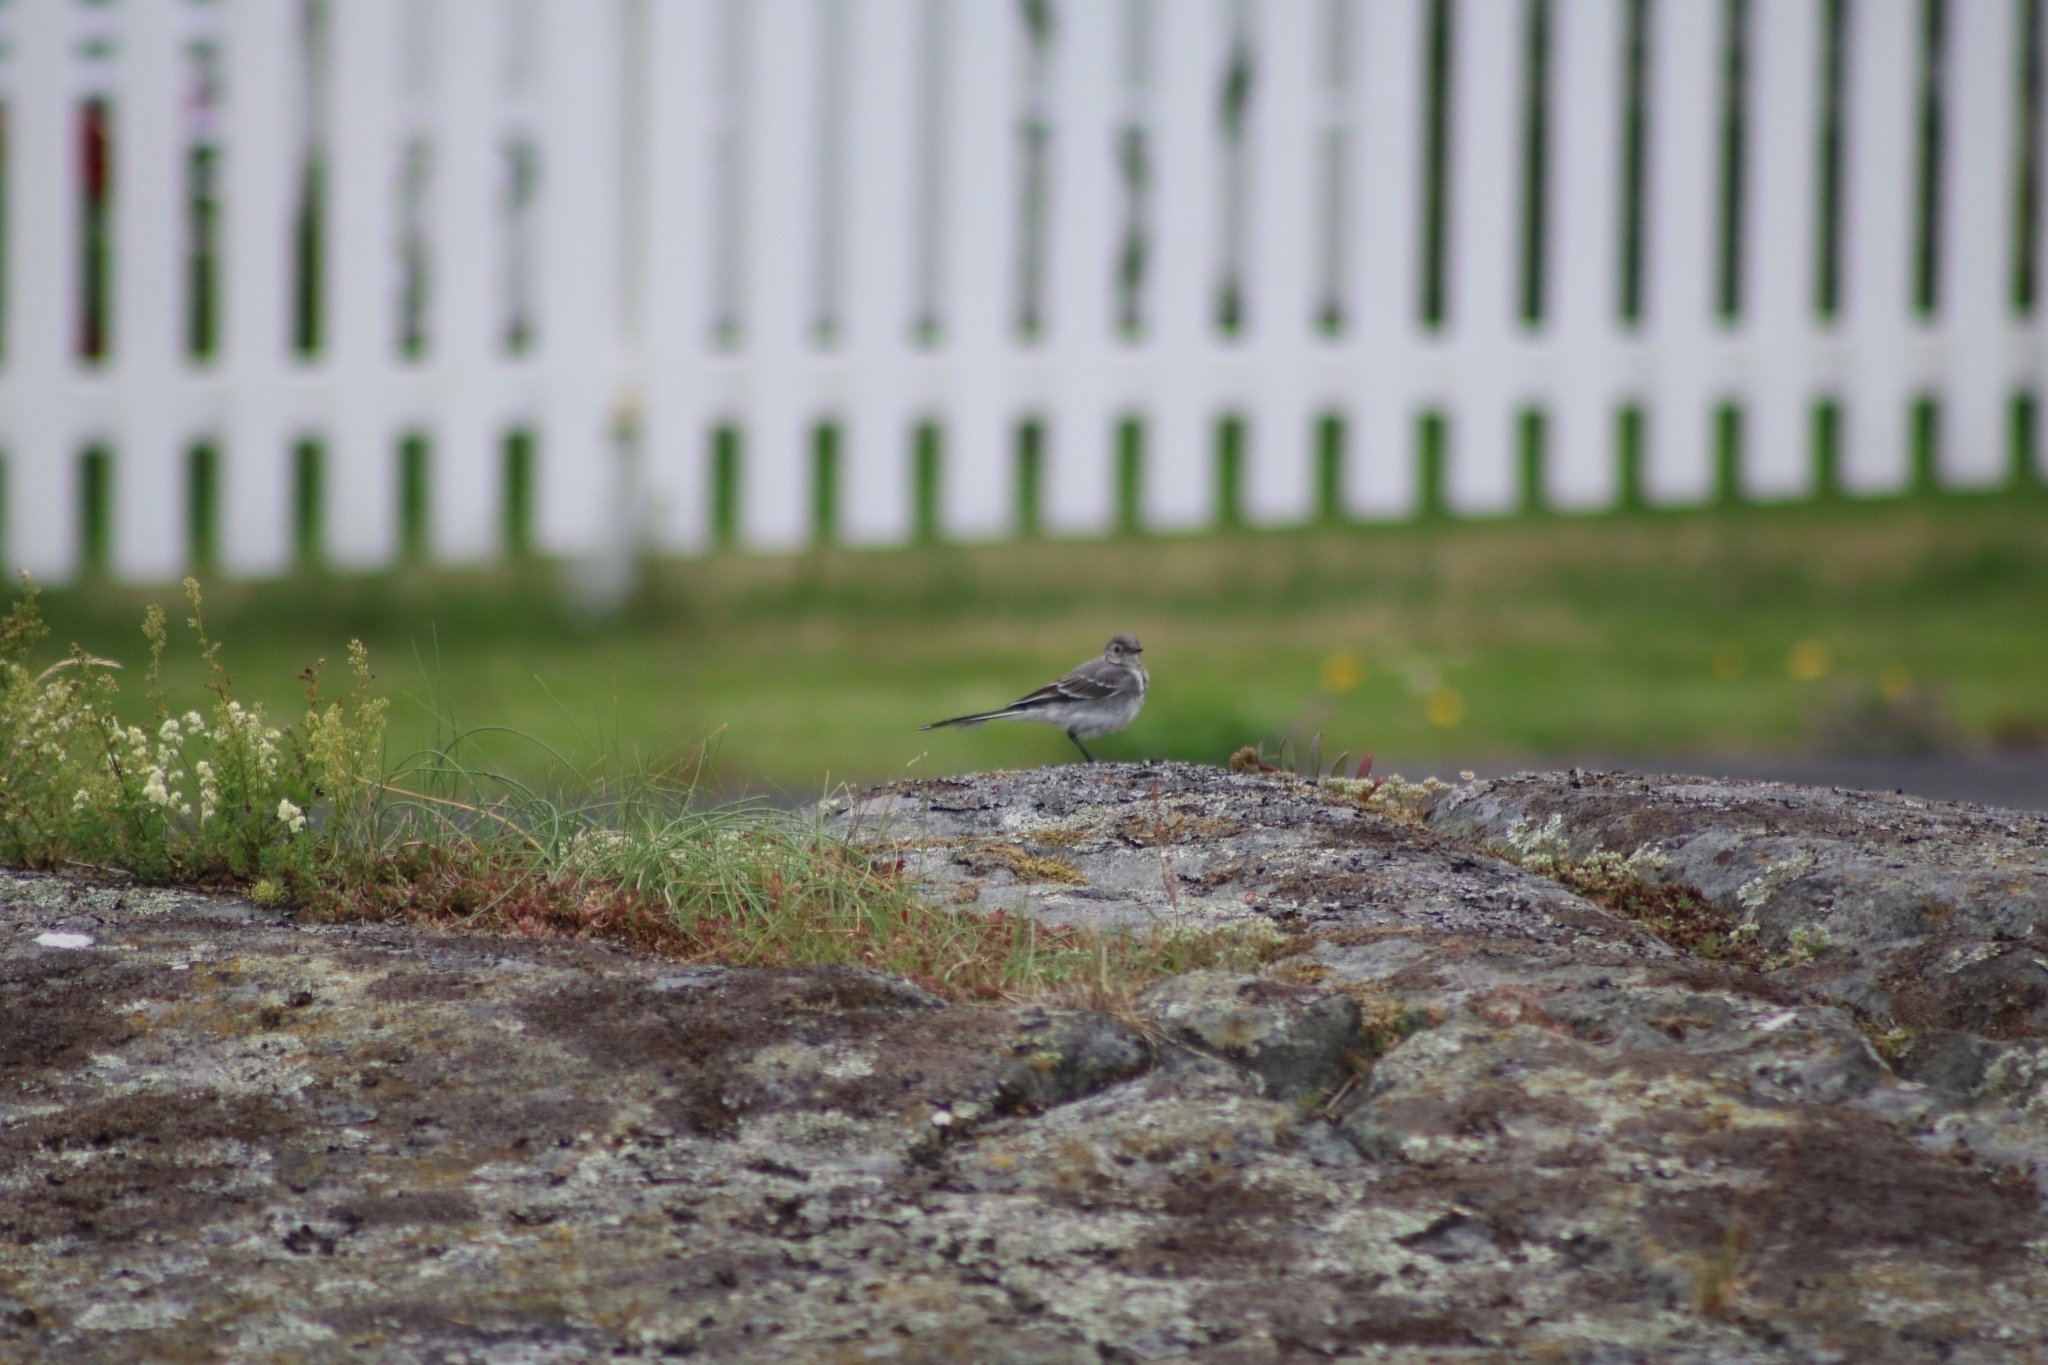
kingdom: Animalia
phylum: Chordata
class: Aves
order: Passeriformes
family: Motacillidae
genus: Motacilla
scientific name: Motacilla alba
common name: White wagtail
